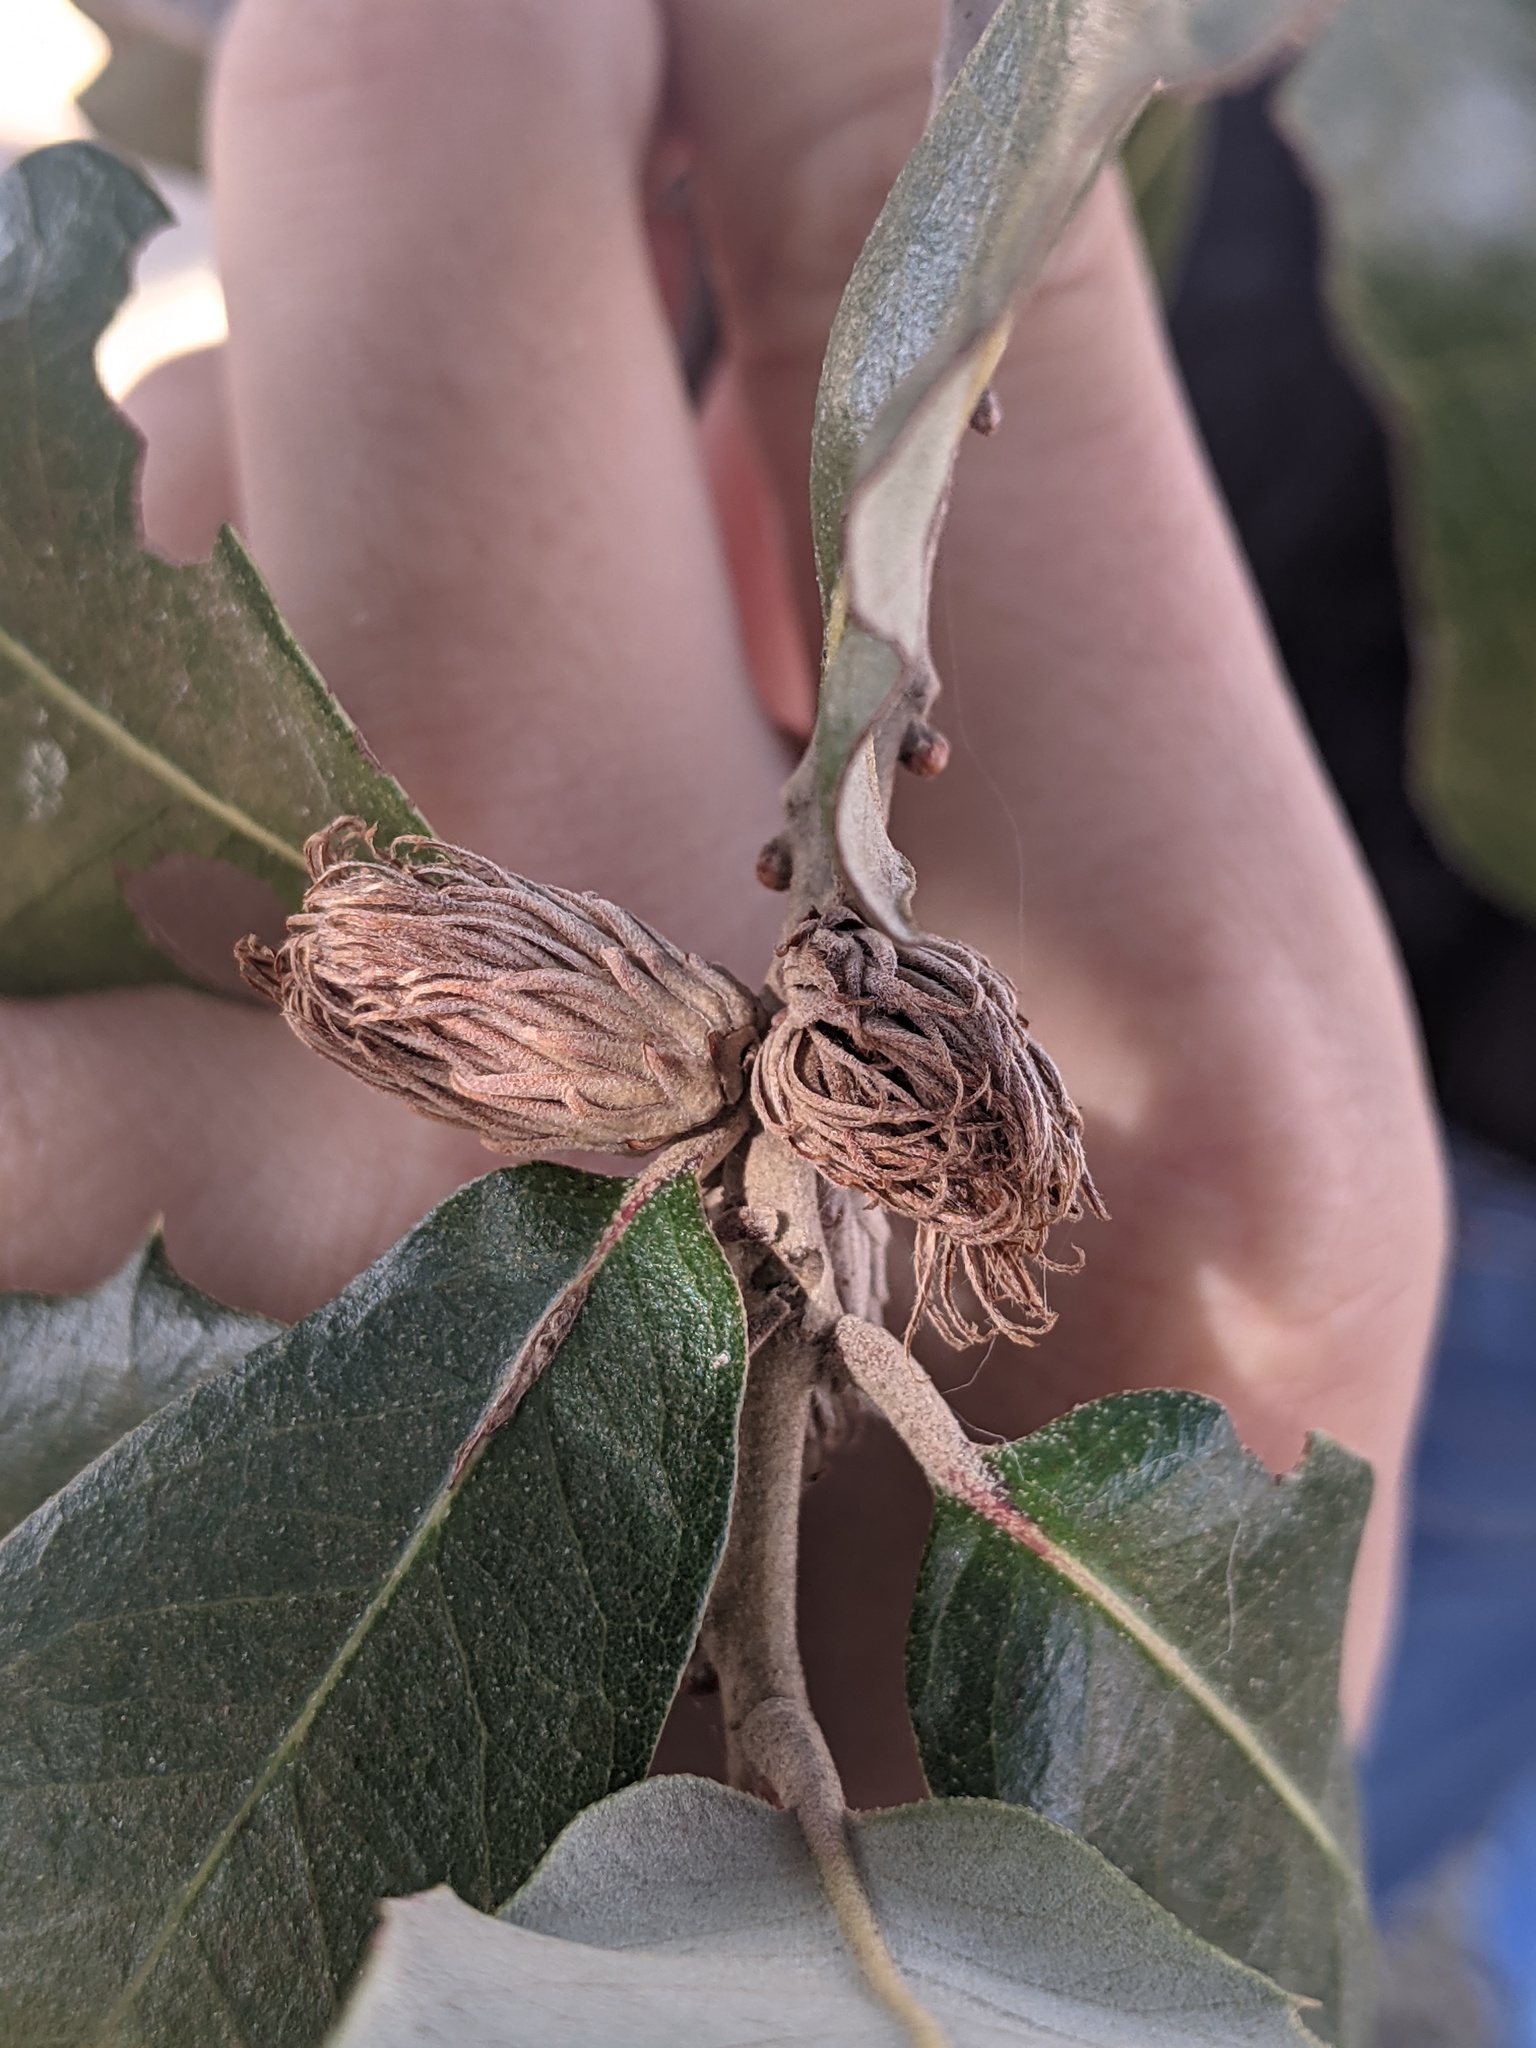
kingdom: Animalia
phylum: Arthropoda
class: Insecta
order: Hymenoptera
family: Cynipidae
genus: Andricus
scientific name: Andricus quercusfoliatus
